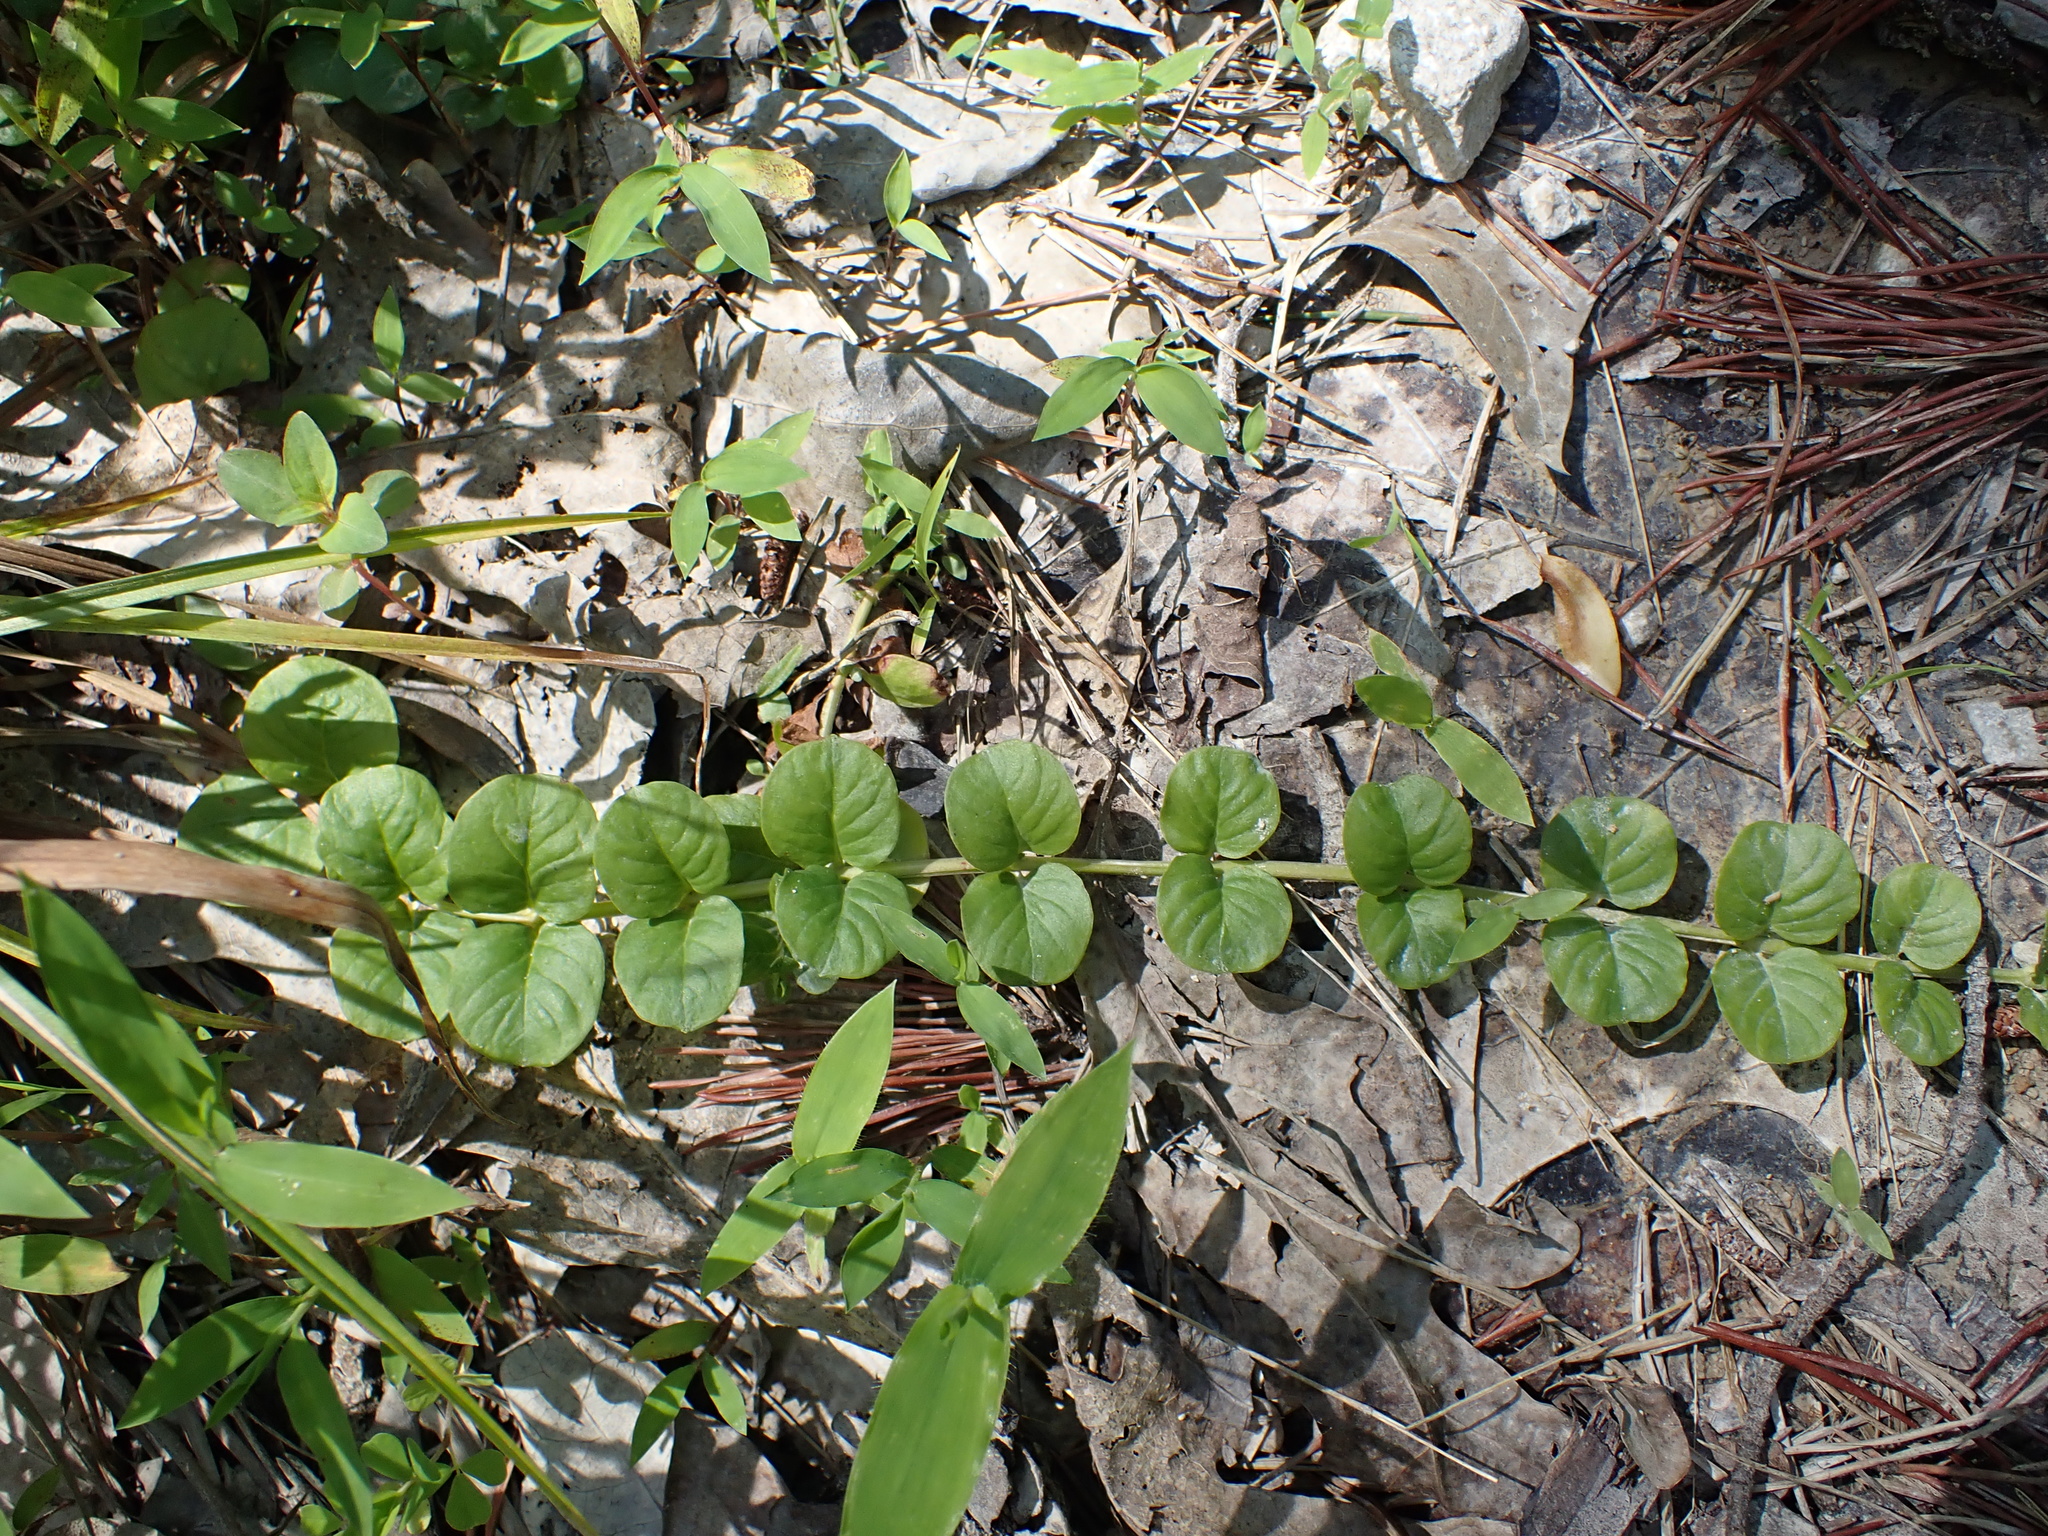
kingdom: Plantae
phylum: Tracheophyta
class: Magnoliopsida
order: Ericales
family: Primulaceae
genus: Lysimachia
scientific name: Lysimachia nummularia
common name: Moneywort
